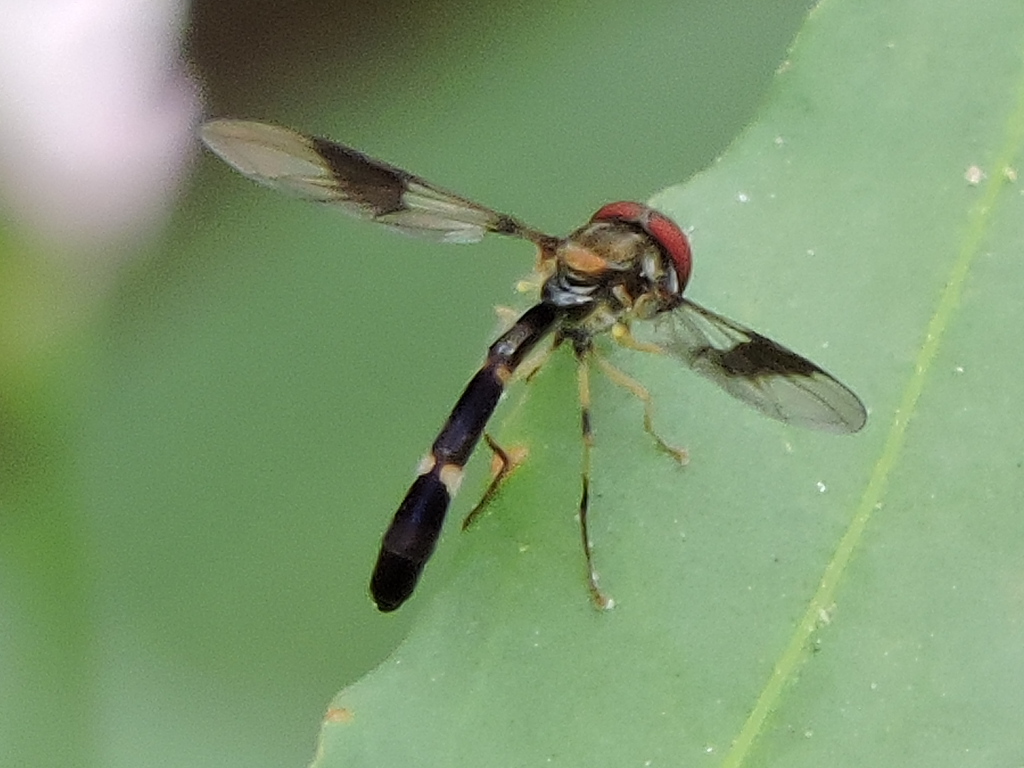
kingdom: Animalia
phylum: Arthropoda
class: Insecta
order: Diptera
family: Syrphidae
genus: Hypocritanus
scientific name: Hypocritanus fascipennis
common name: Eastern band-winged hover fly
